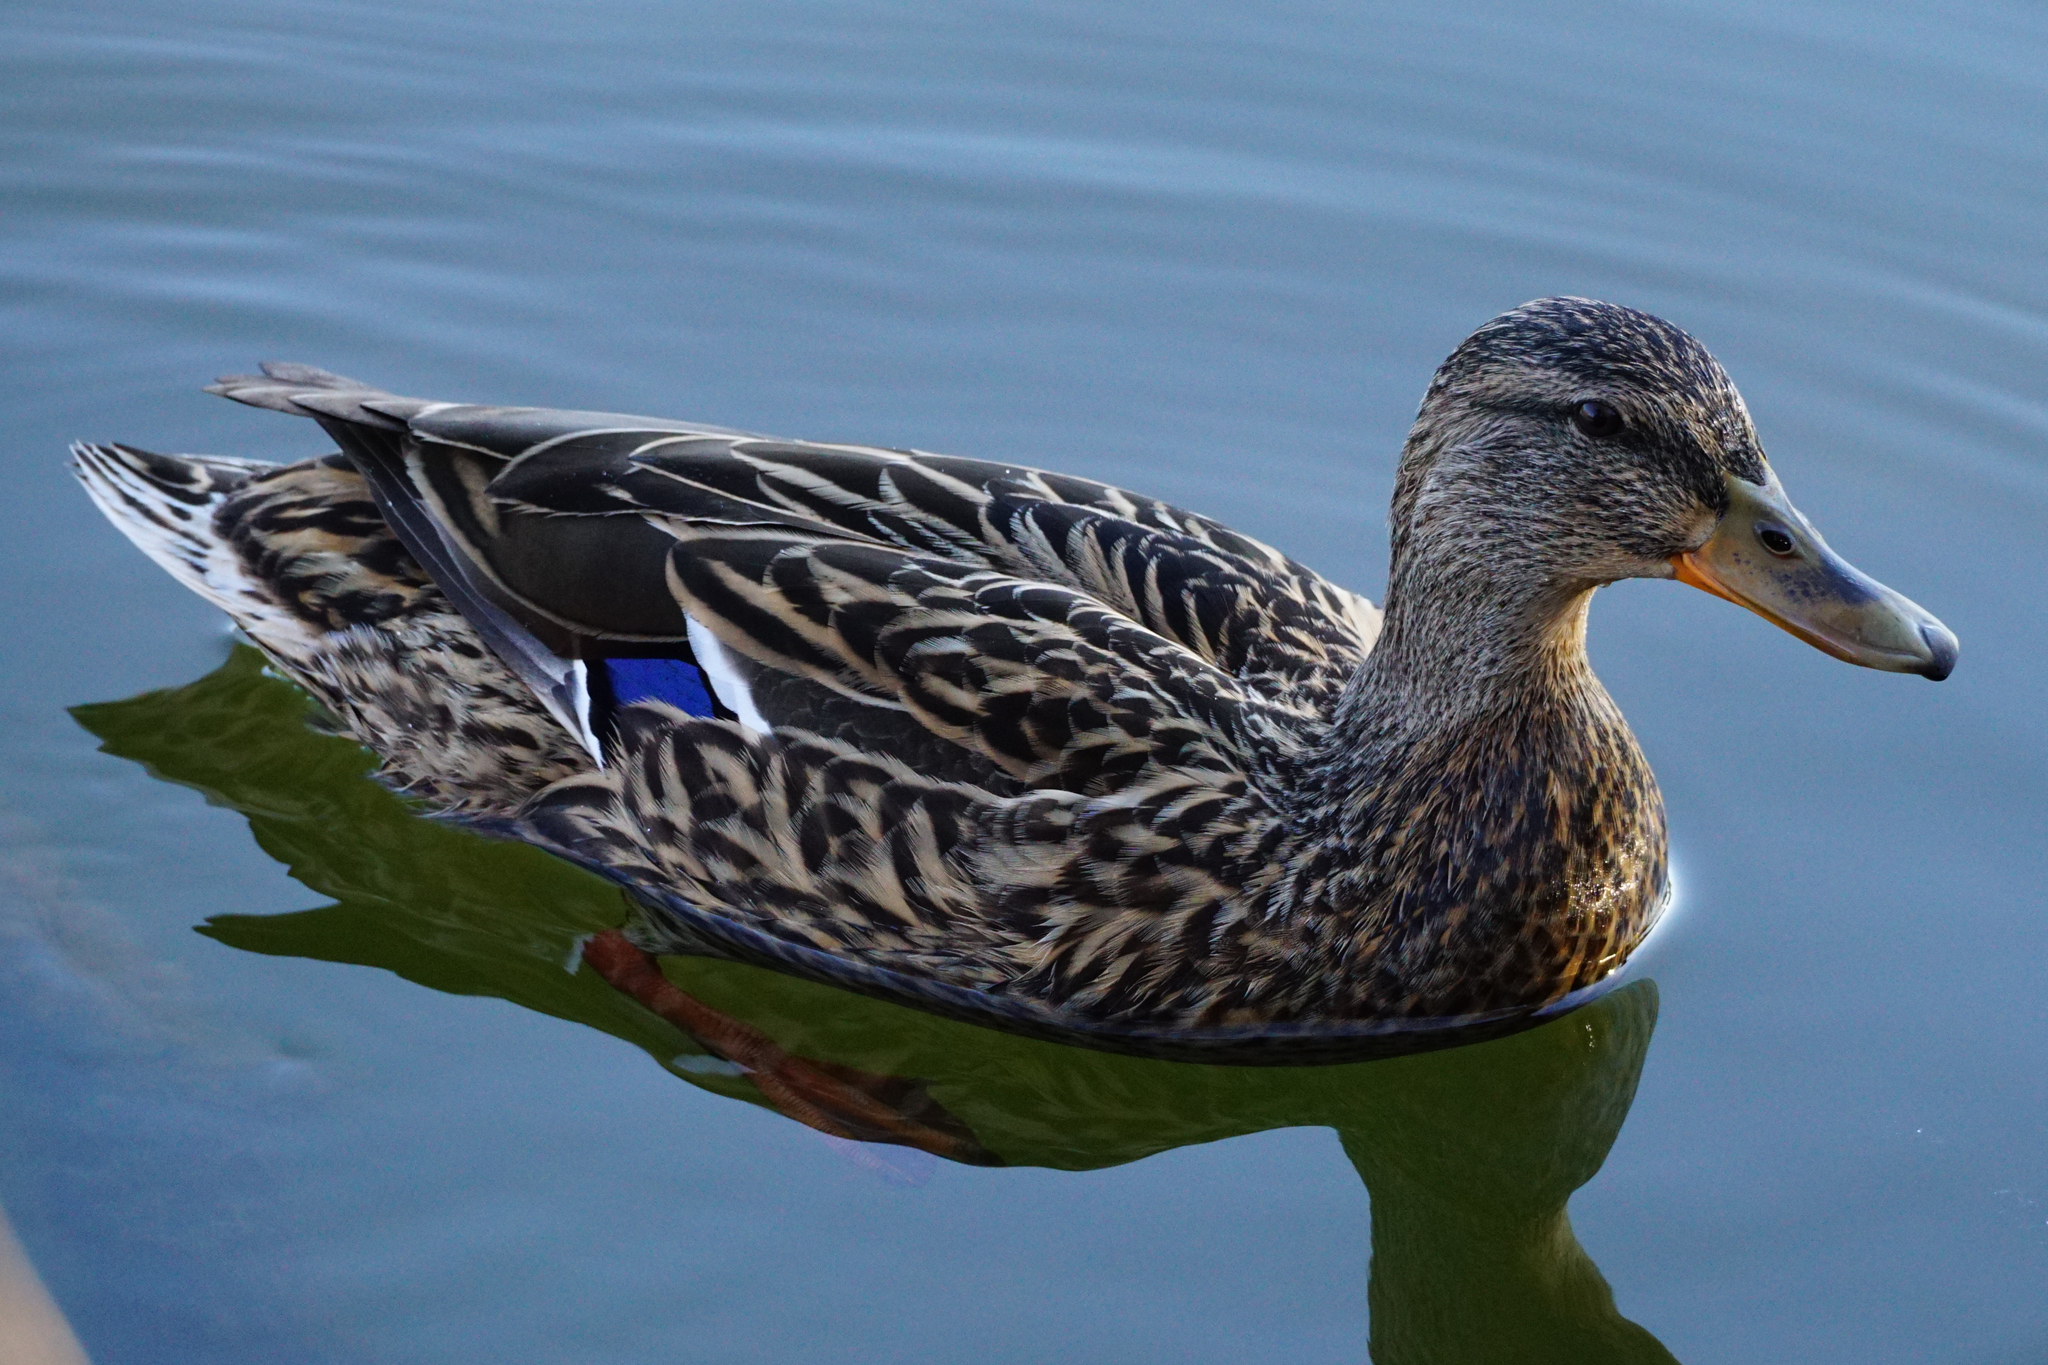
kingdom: Animalia
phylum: Chordata
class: Aves
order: Anseriformes
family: Anatidae
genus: Anas
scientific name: Anas platyrhynchos
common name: Mallard
